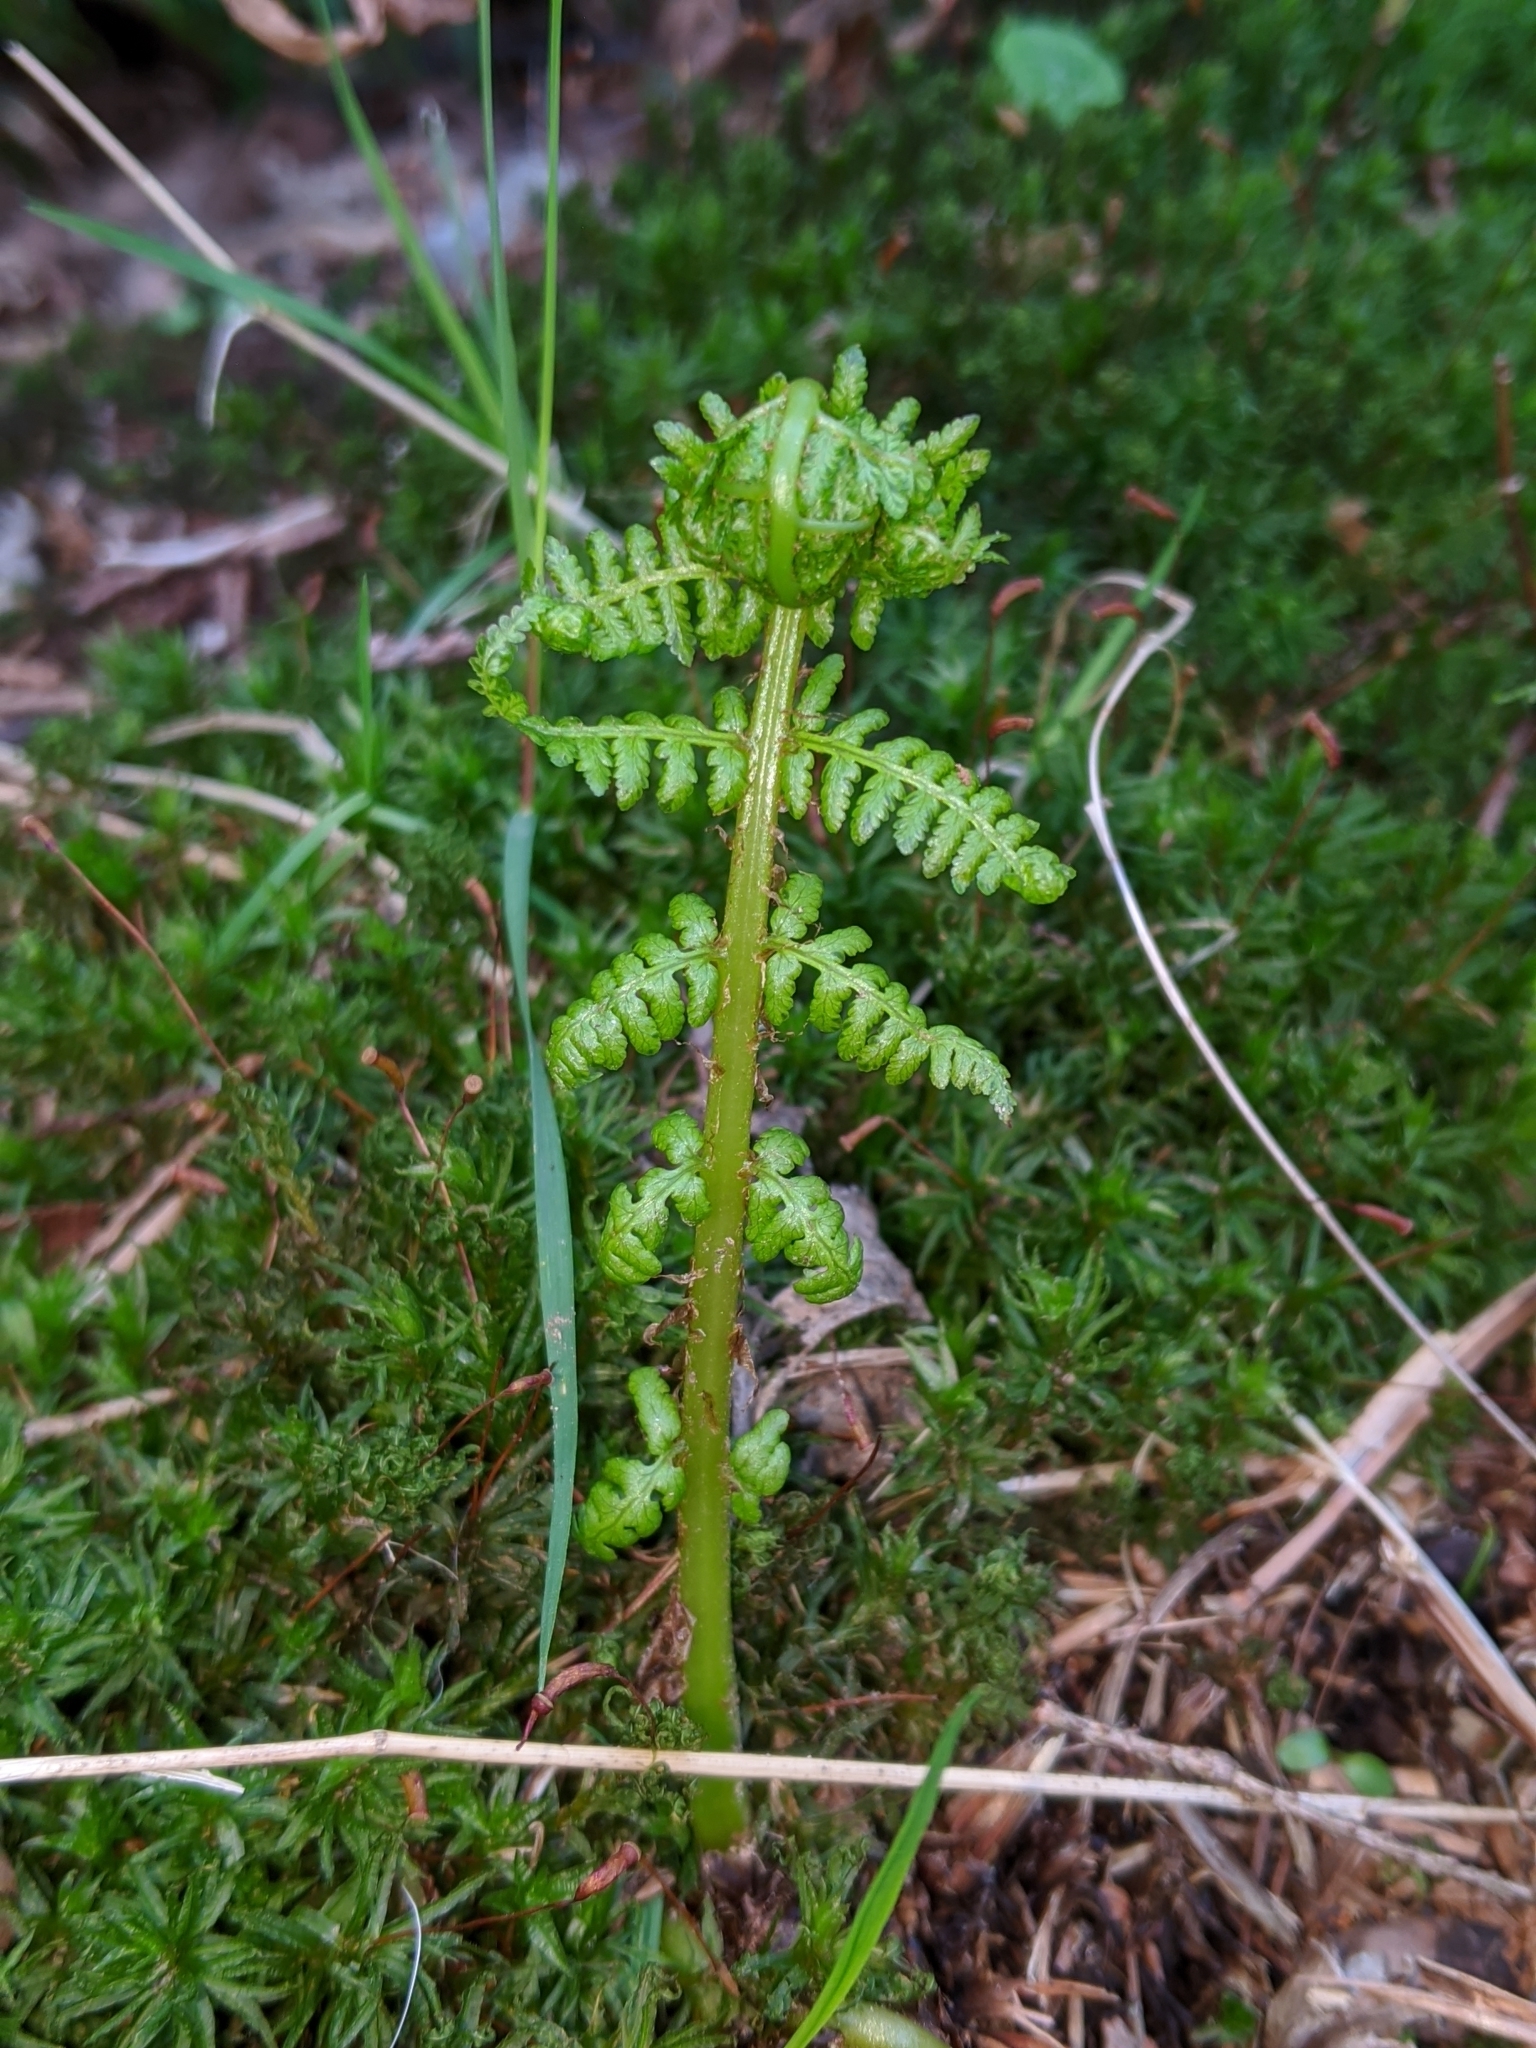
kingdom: Plantae
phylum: Tracheophyta
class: Polypodiopsida
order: Polypodiales
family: Athyriaceae
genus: Athyrium
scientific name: Athyrium cyclosorum
